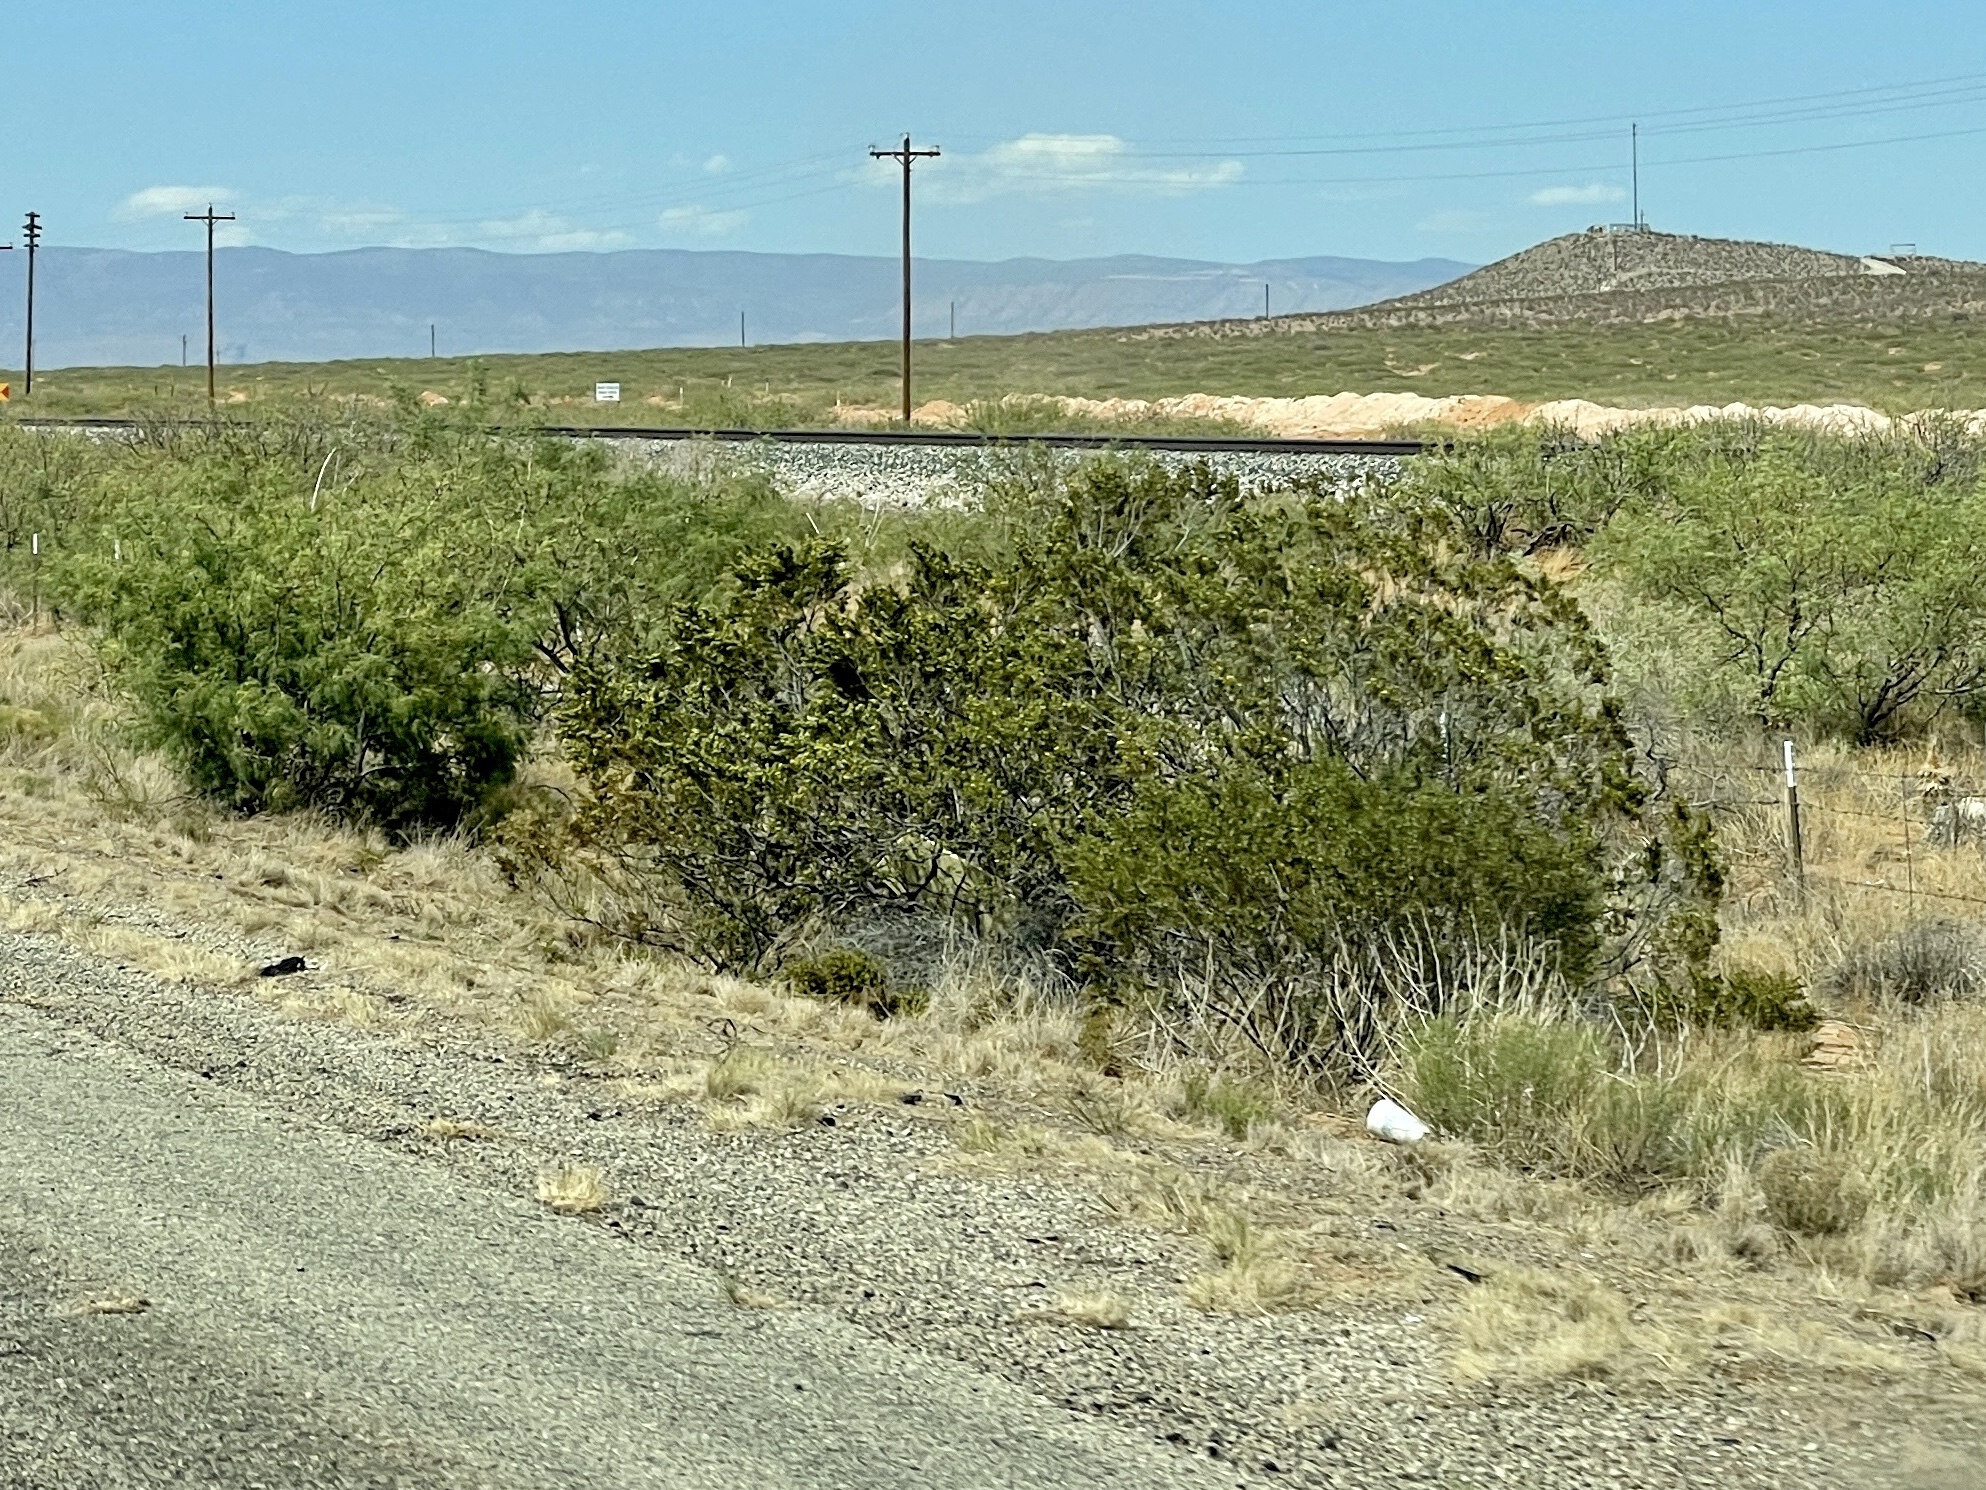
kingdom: Plantae
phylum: Tracheophyta
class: Magnoliopsida
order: Zygophyllales
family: Zygophyllaceae
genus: Larrea
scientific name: Larrea tridentata
